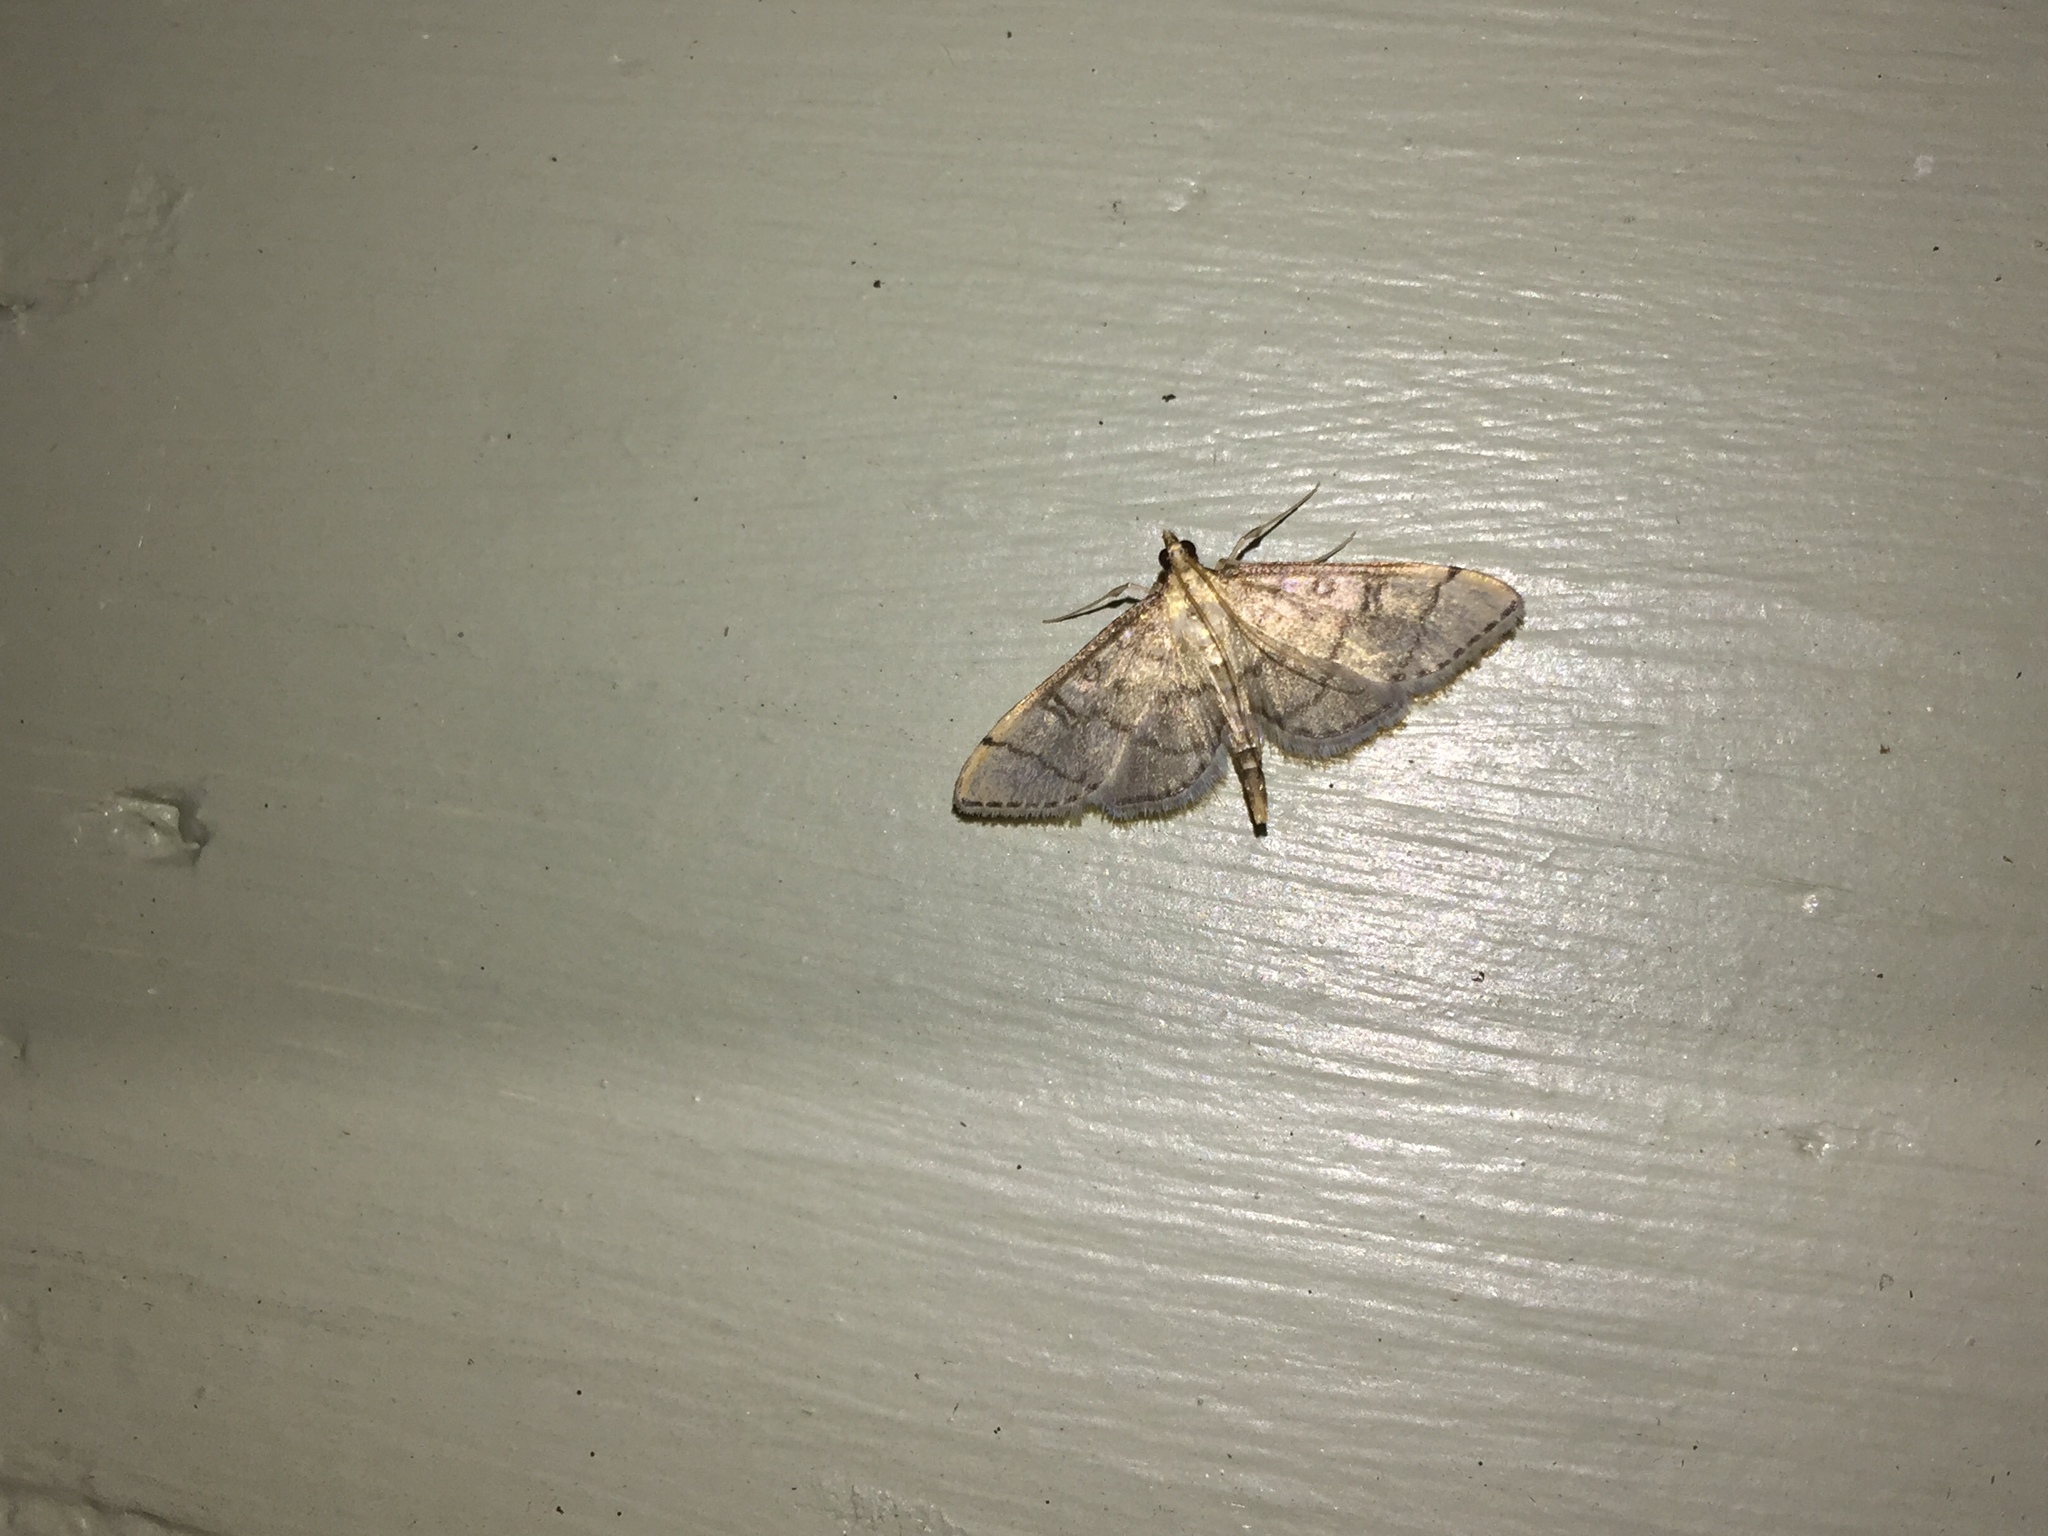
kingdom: Animalia
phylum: Arthropoda
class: Insecta
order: Lepidoptera
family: Crambidae
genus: Lamprosema
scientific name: Lamprosema Blepharomastix ranalis
